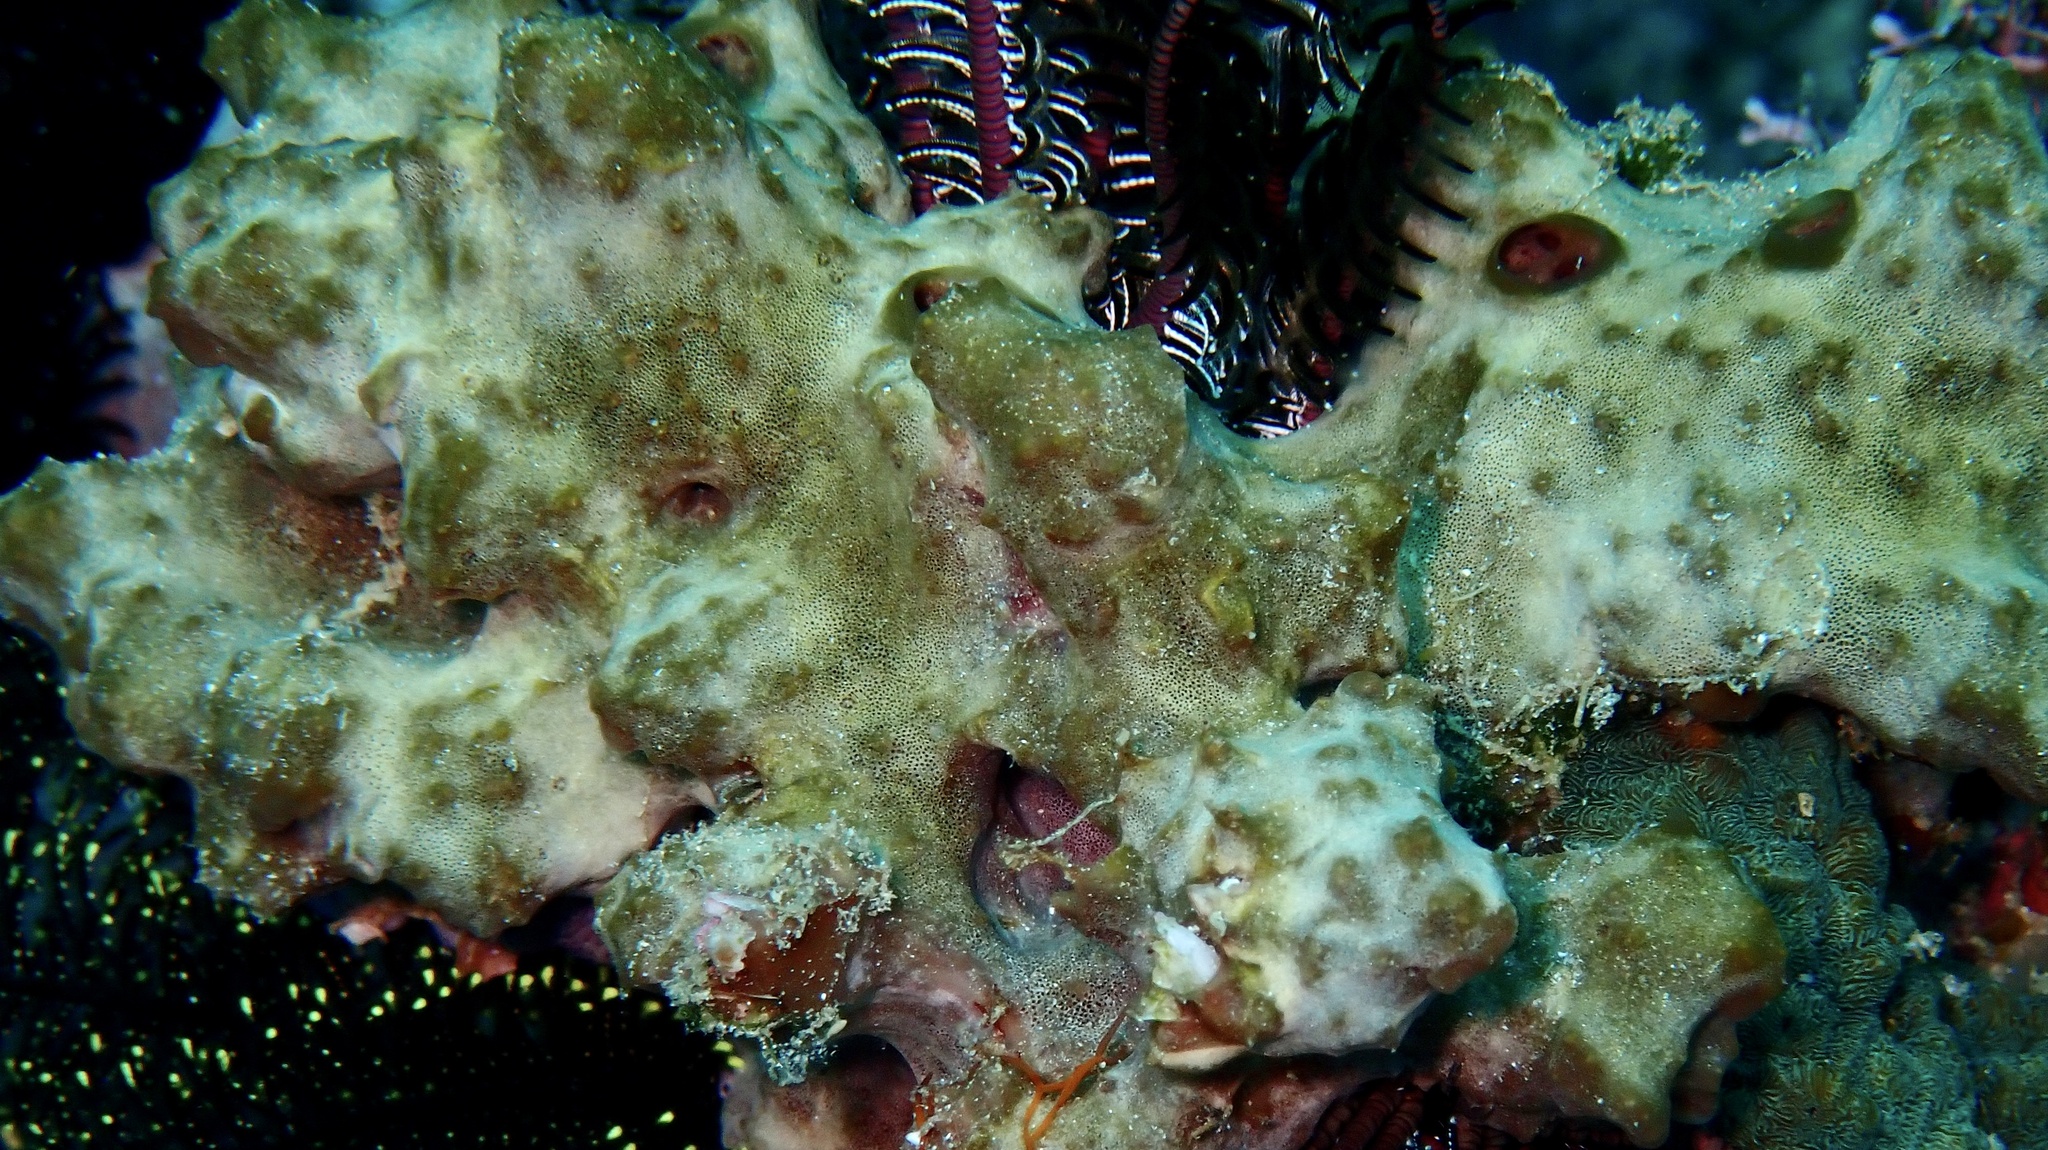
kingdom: Animalia
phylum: Porifera
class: Demospongiae
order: Dictyoceratida
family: Irciniidae
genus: Ircinia
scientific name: Ircinia colossa
